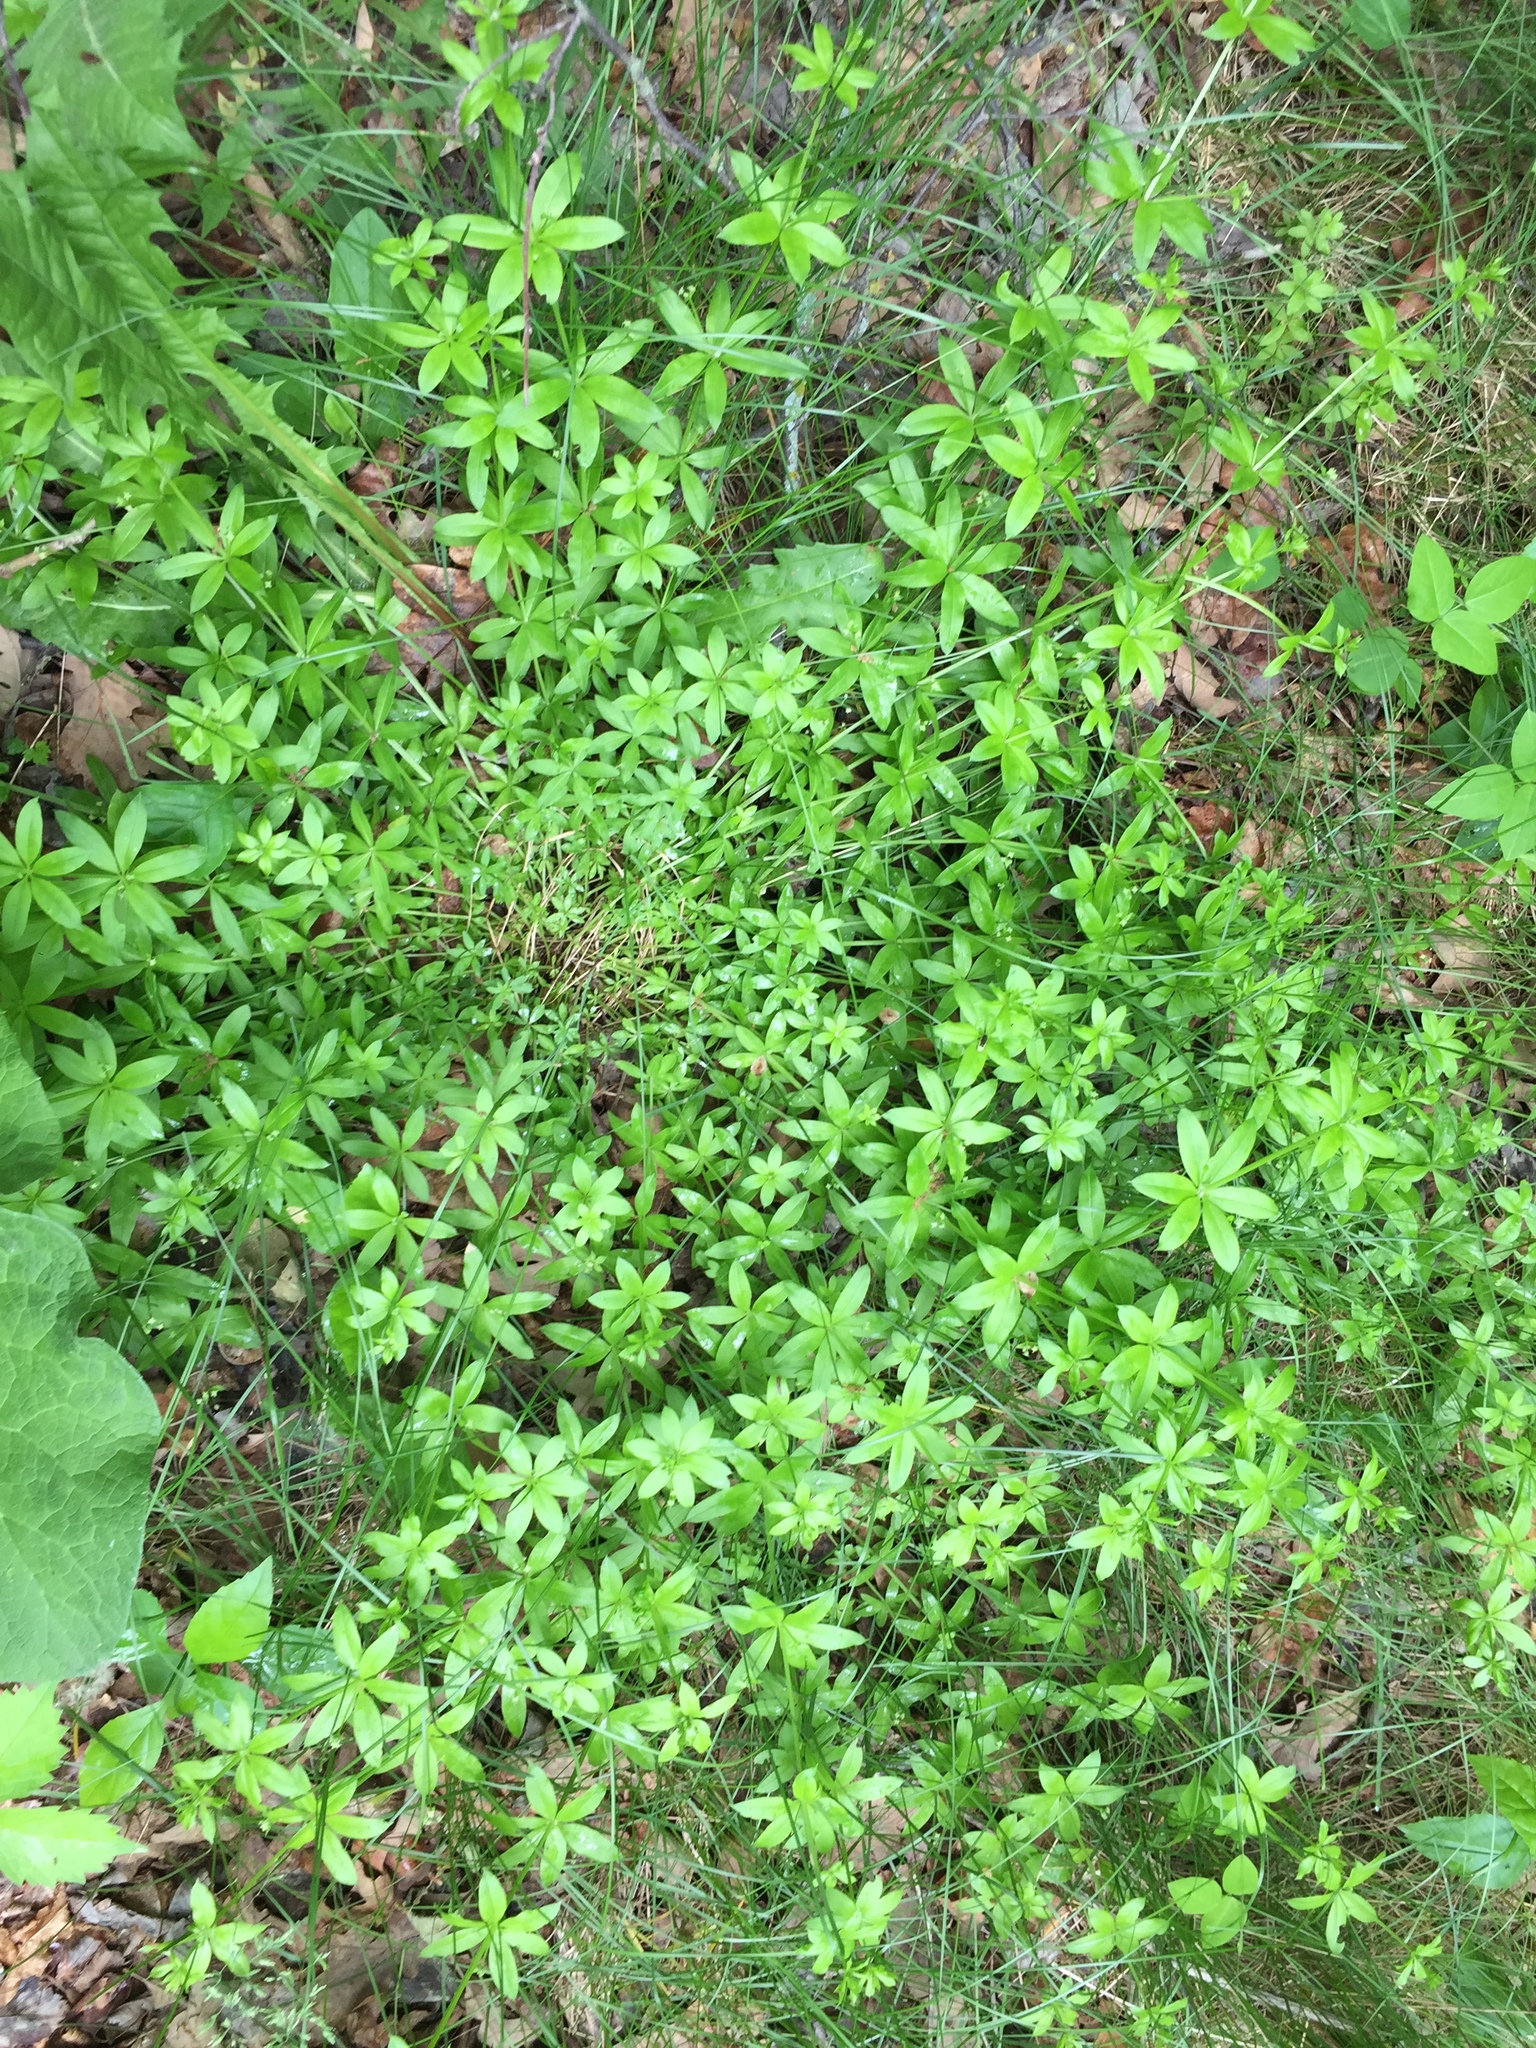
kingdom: Plantae
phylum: Tracheophyta
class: Magnoliopsida
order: Gentianales
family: Rubiaceae
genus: Galium
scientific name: Galium triflorum
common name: Fragrant bedstraw
